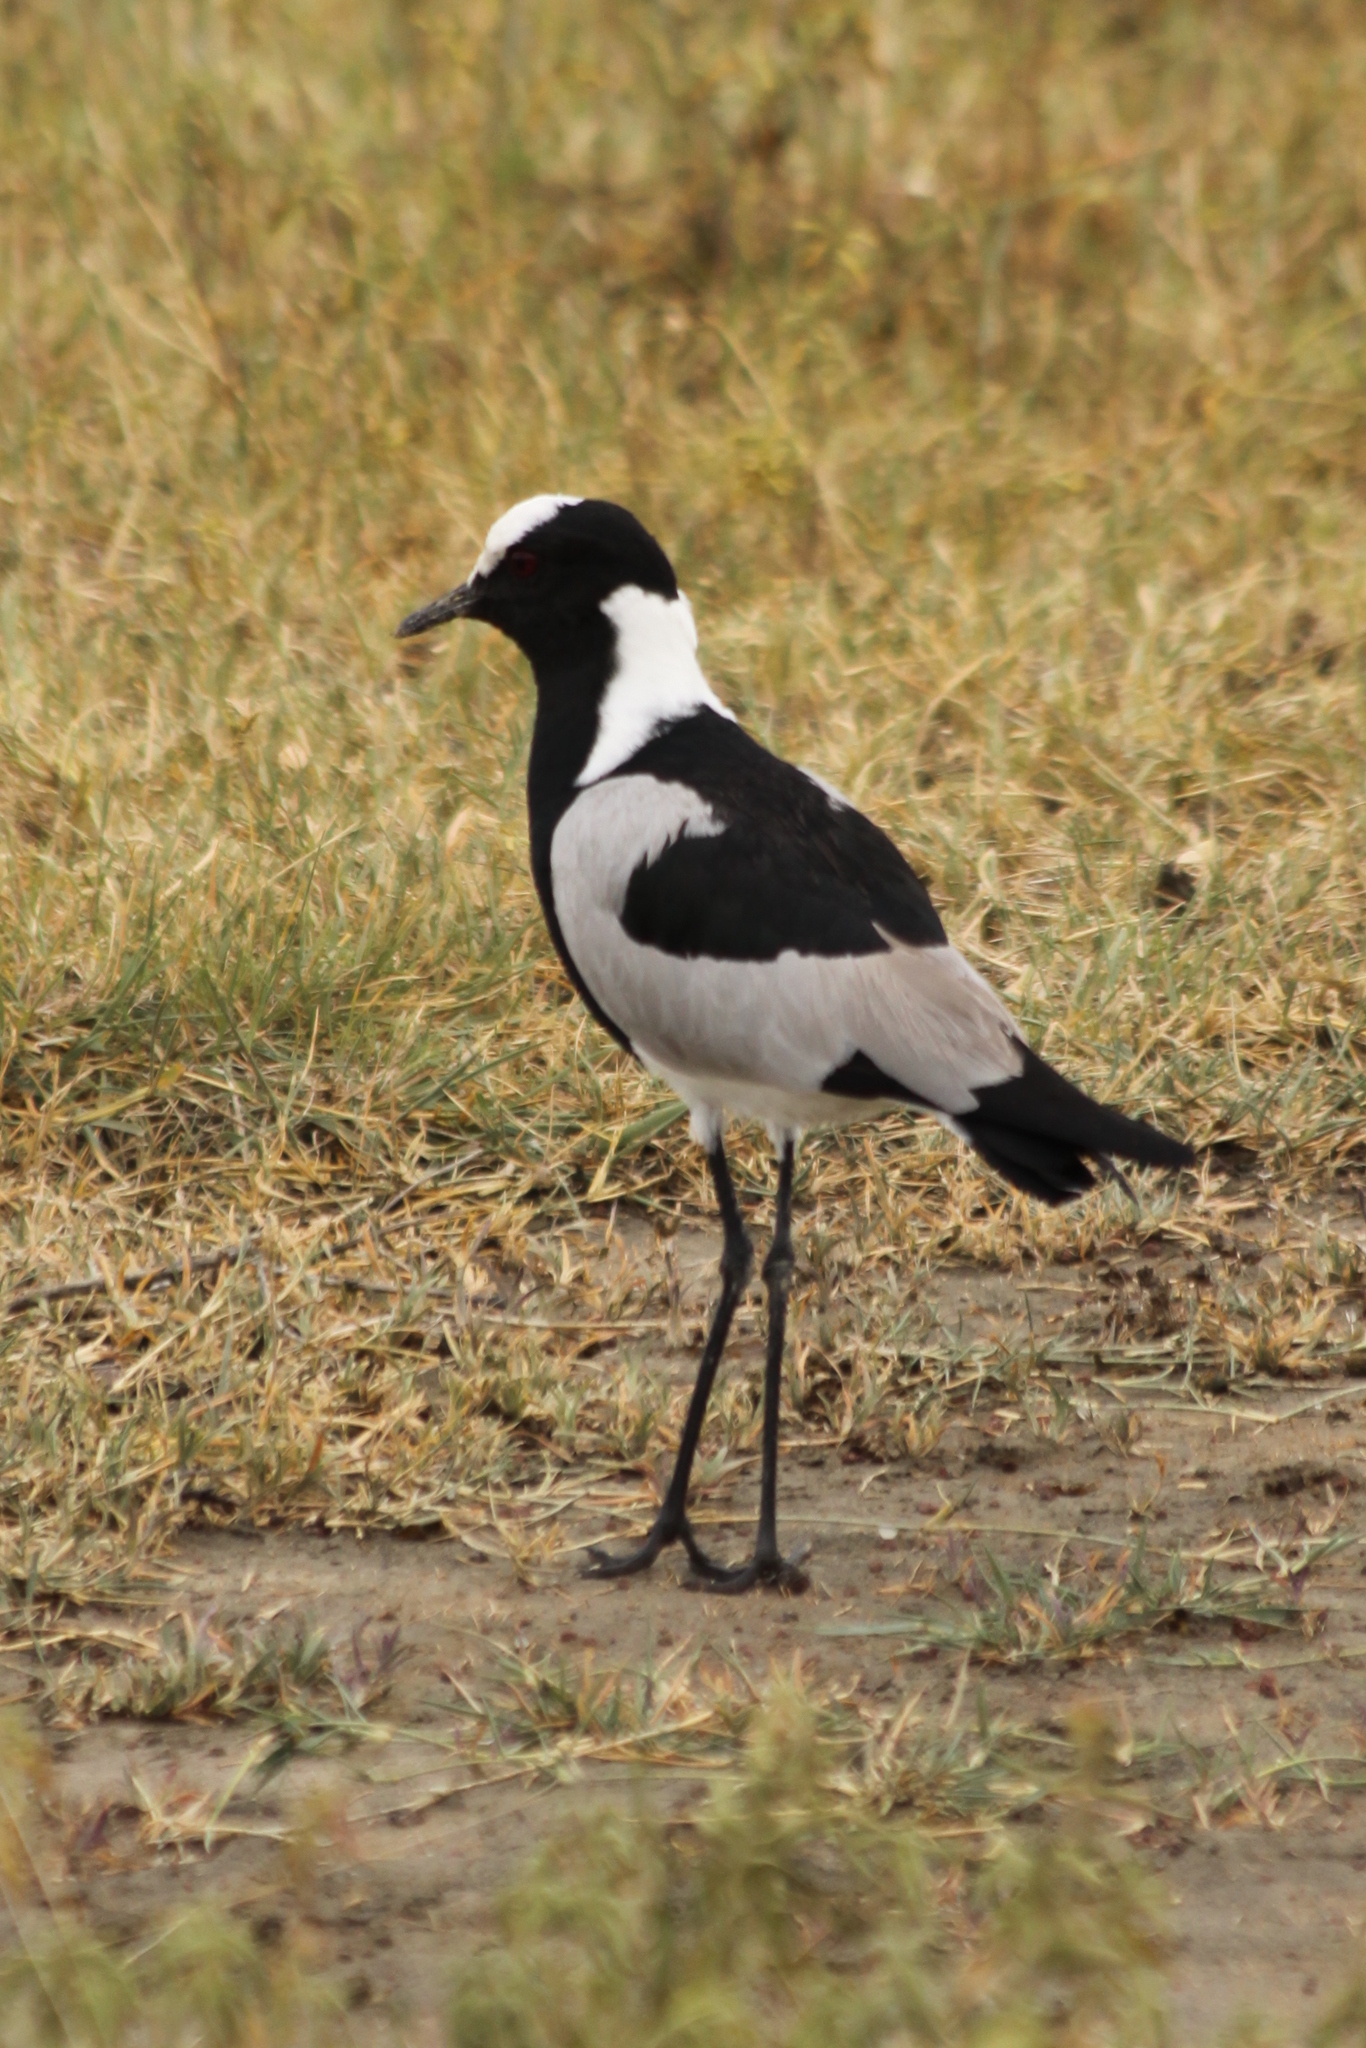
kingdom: Animalia
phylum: Chordata
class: Aves
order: Charadriiformes
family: Charadriidae
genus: Vanellus
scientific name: Vanellus armatus
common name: Blacksmith lapwing
